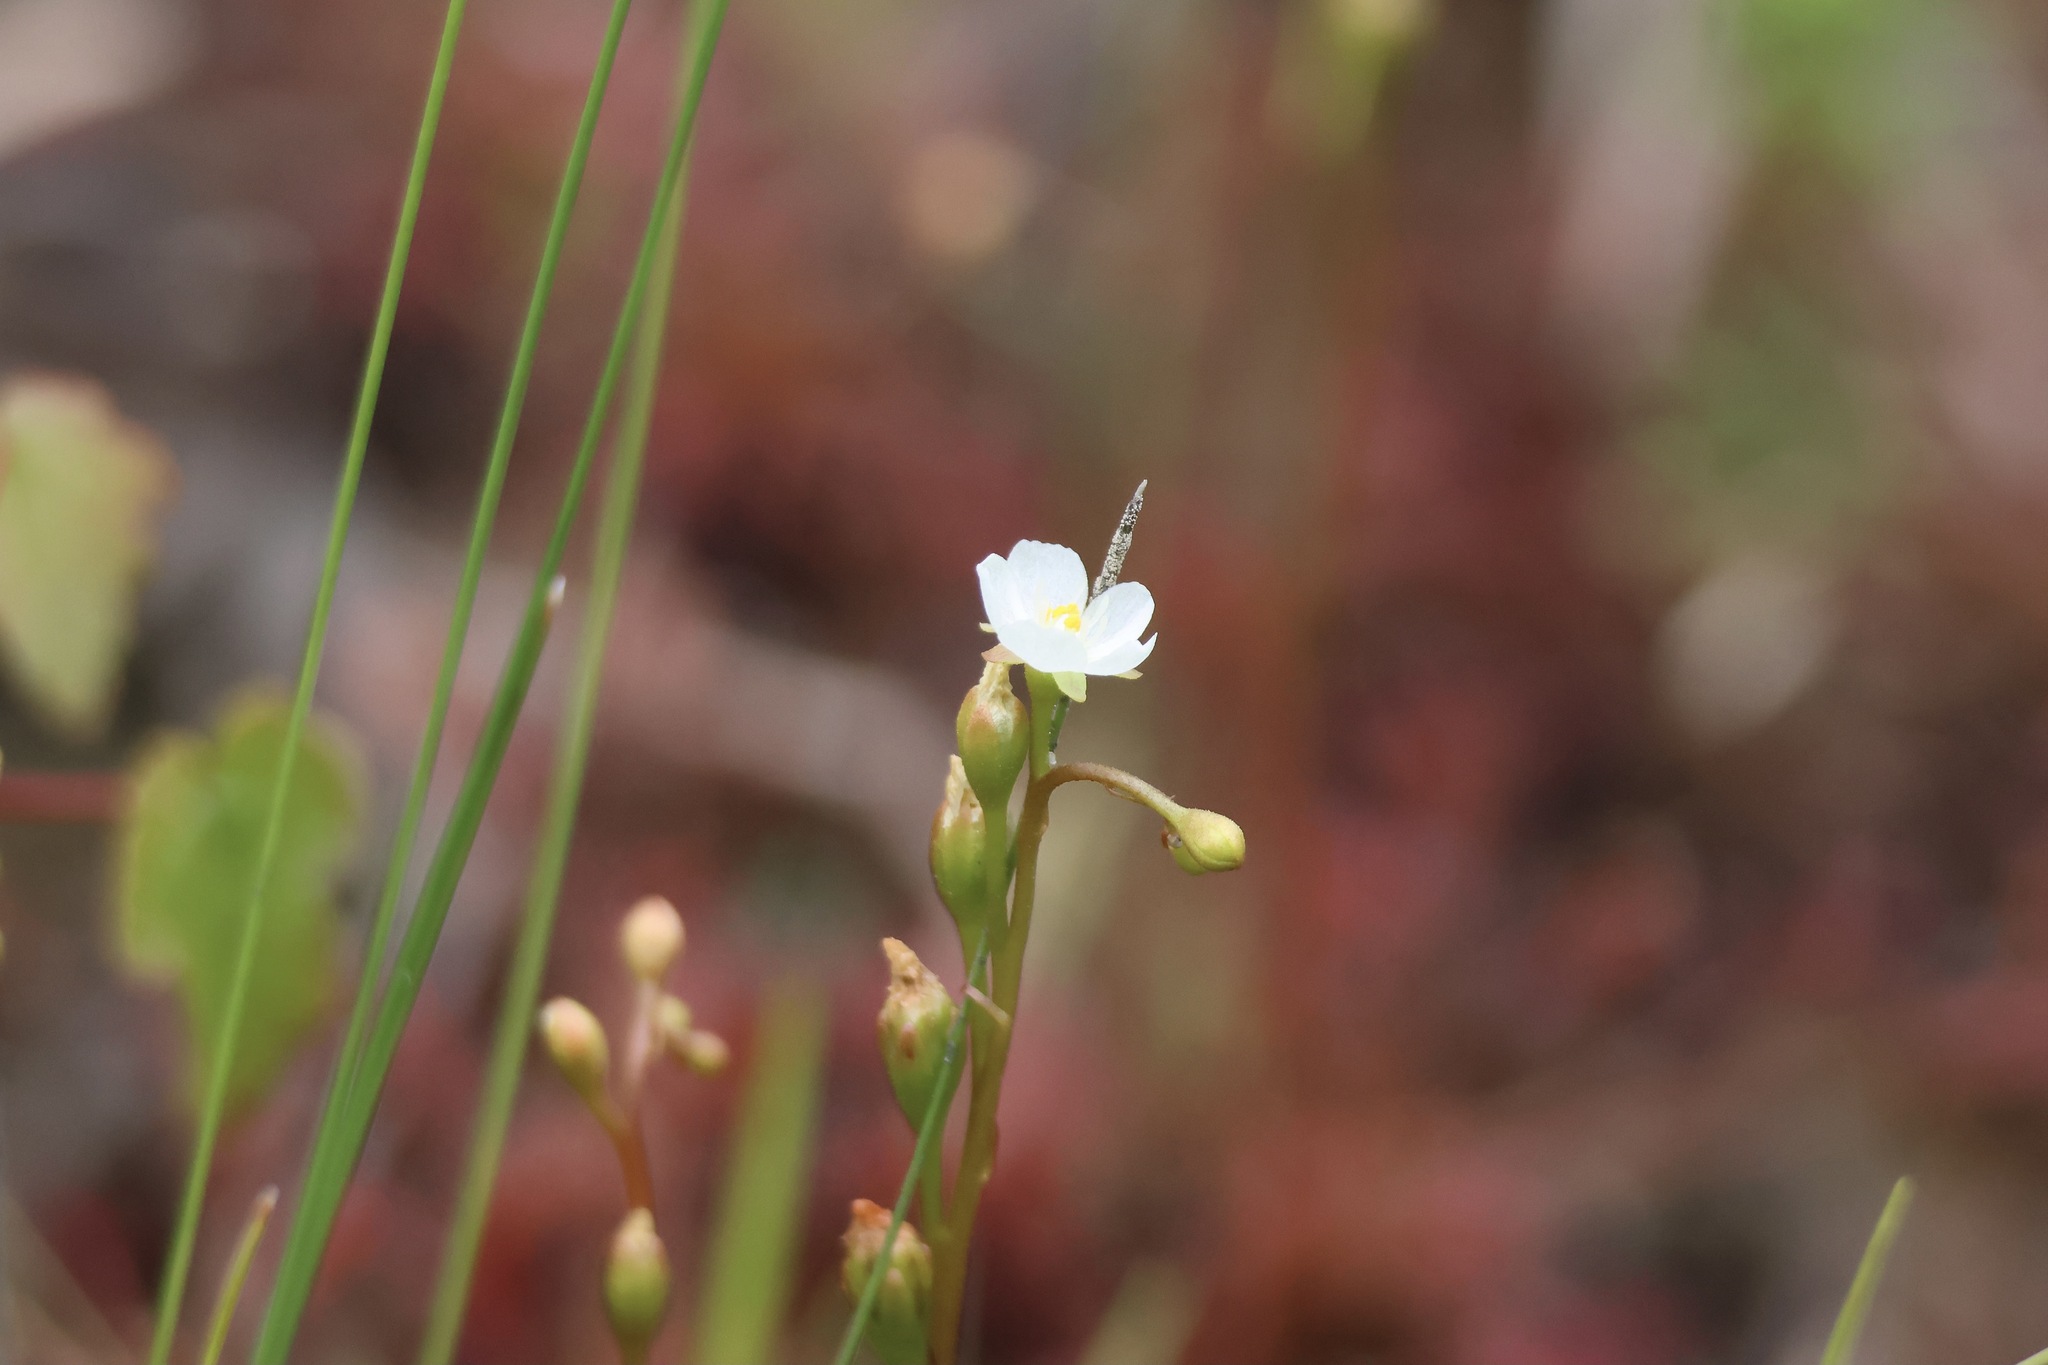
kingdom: Plantae
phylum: Tracheophyta
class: Magnoliopsida
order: Caryophyllales
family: Droseraceae
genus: Drosera
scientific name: Drosera intermedia
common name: Oblong-leaved sundew
